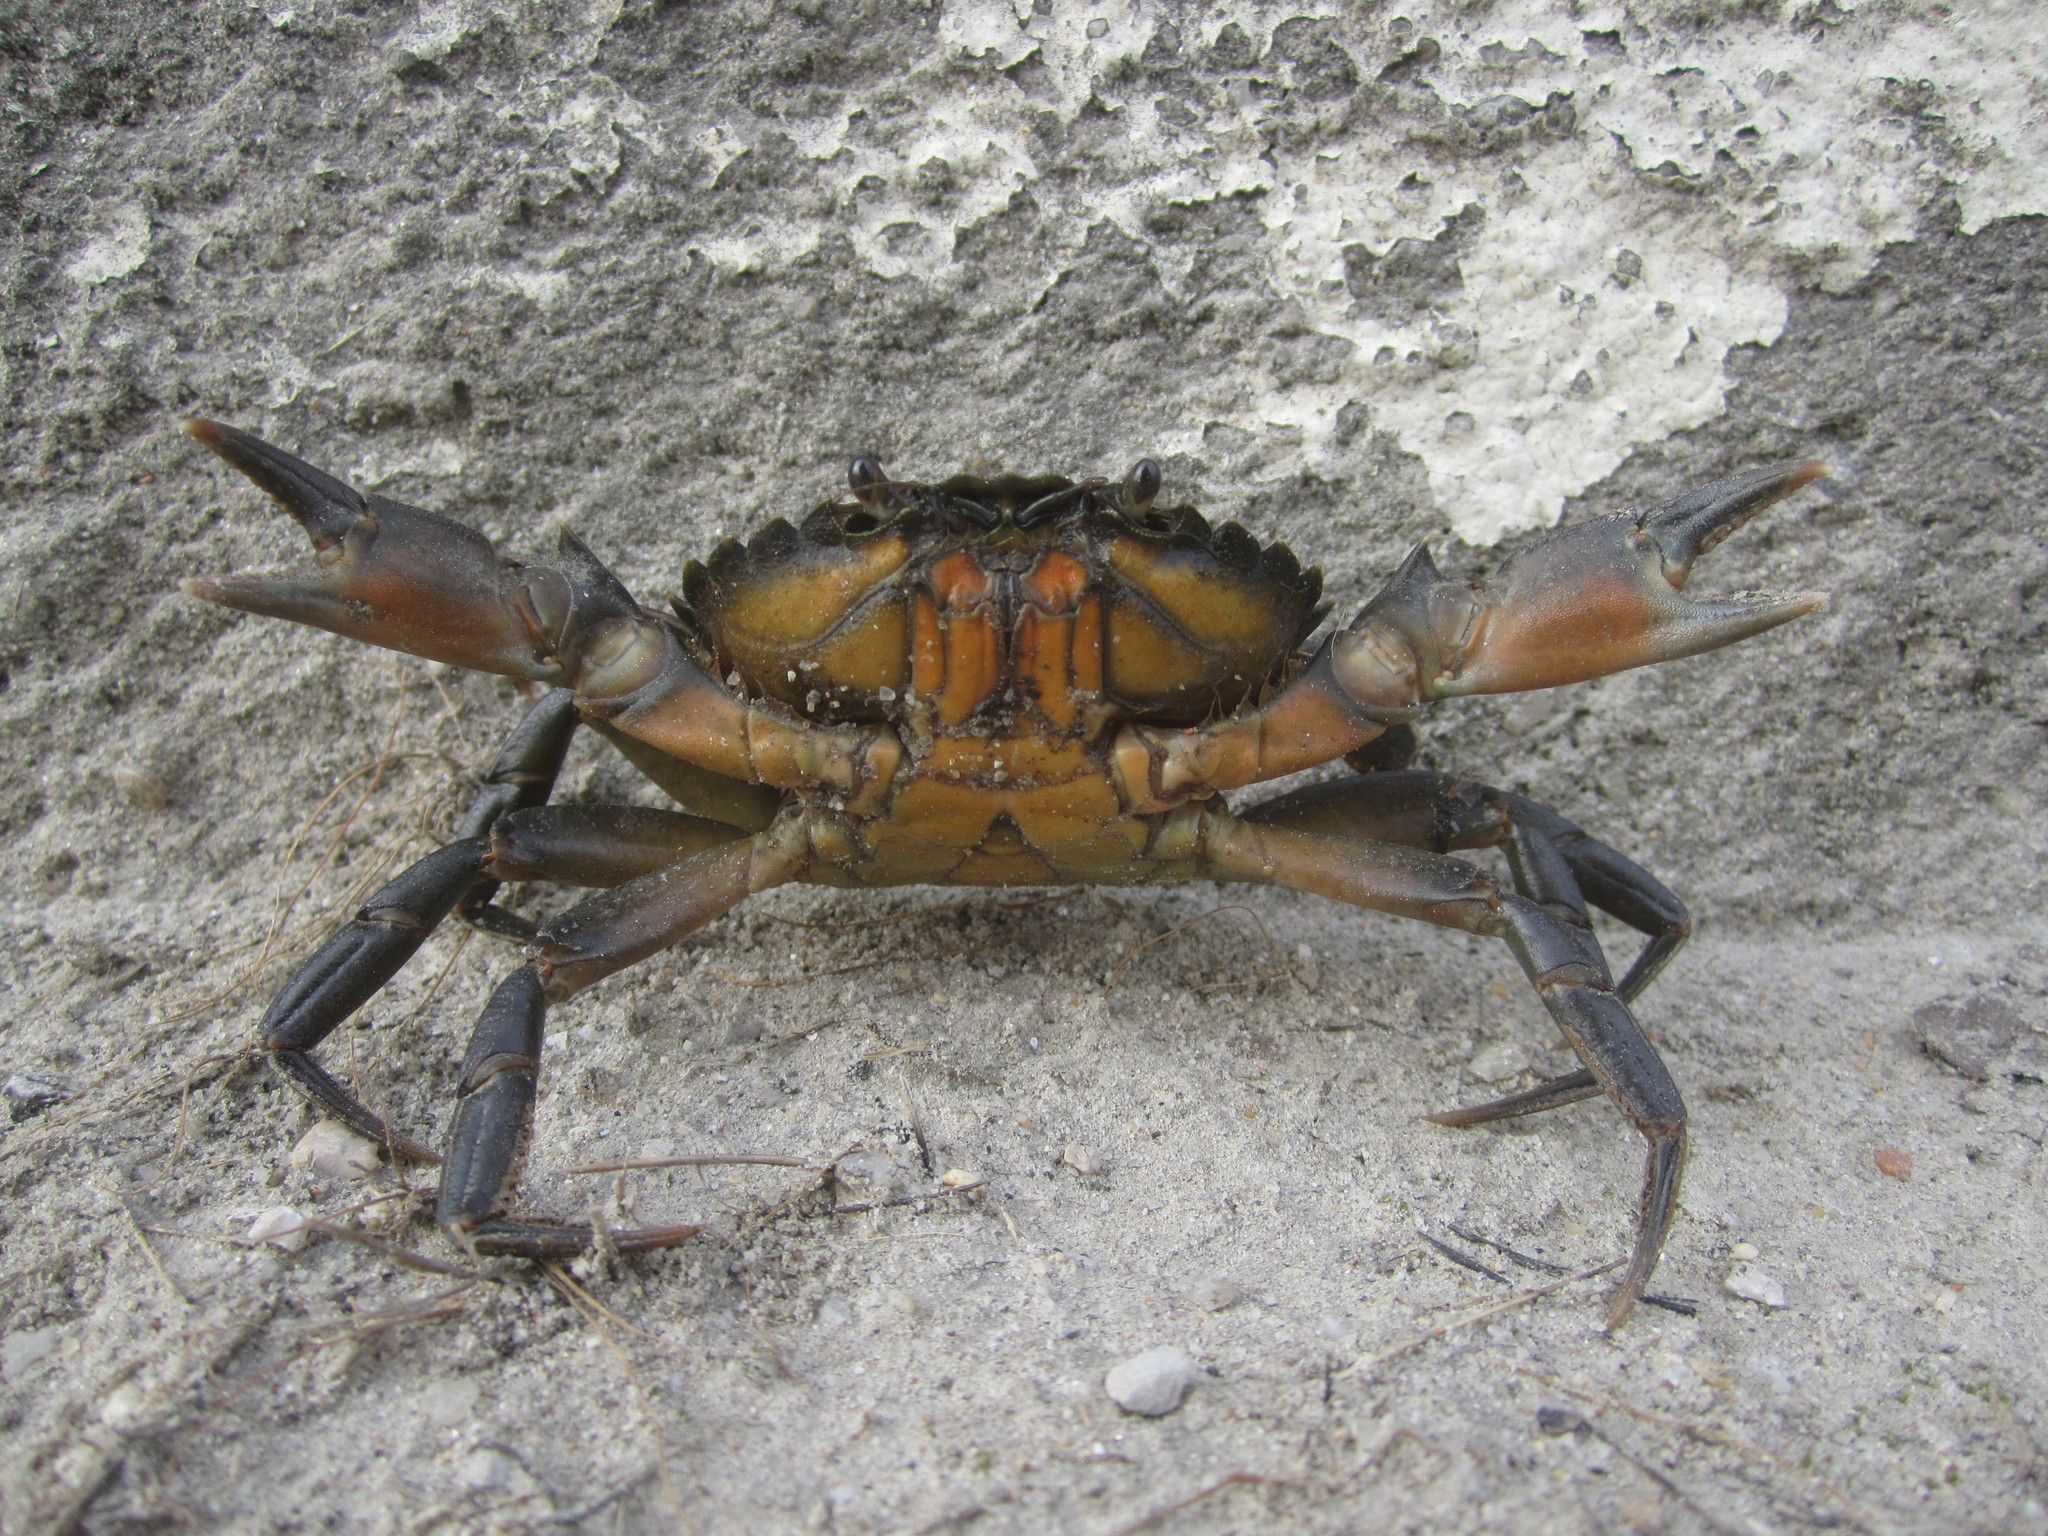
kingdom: Animalia
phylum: Arthropoda
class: Malacostraca
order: Decapoda
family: Carcinidae
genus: Carcinus
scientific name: Carcinus maenas
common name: European green crab
